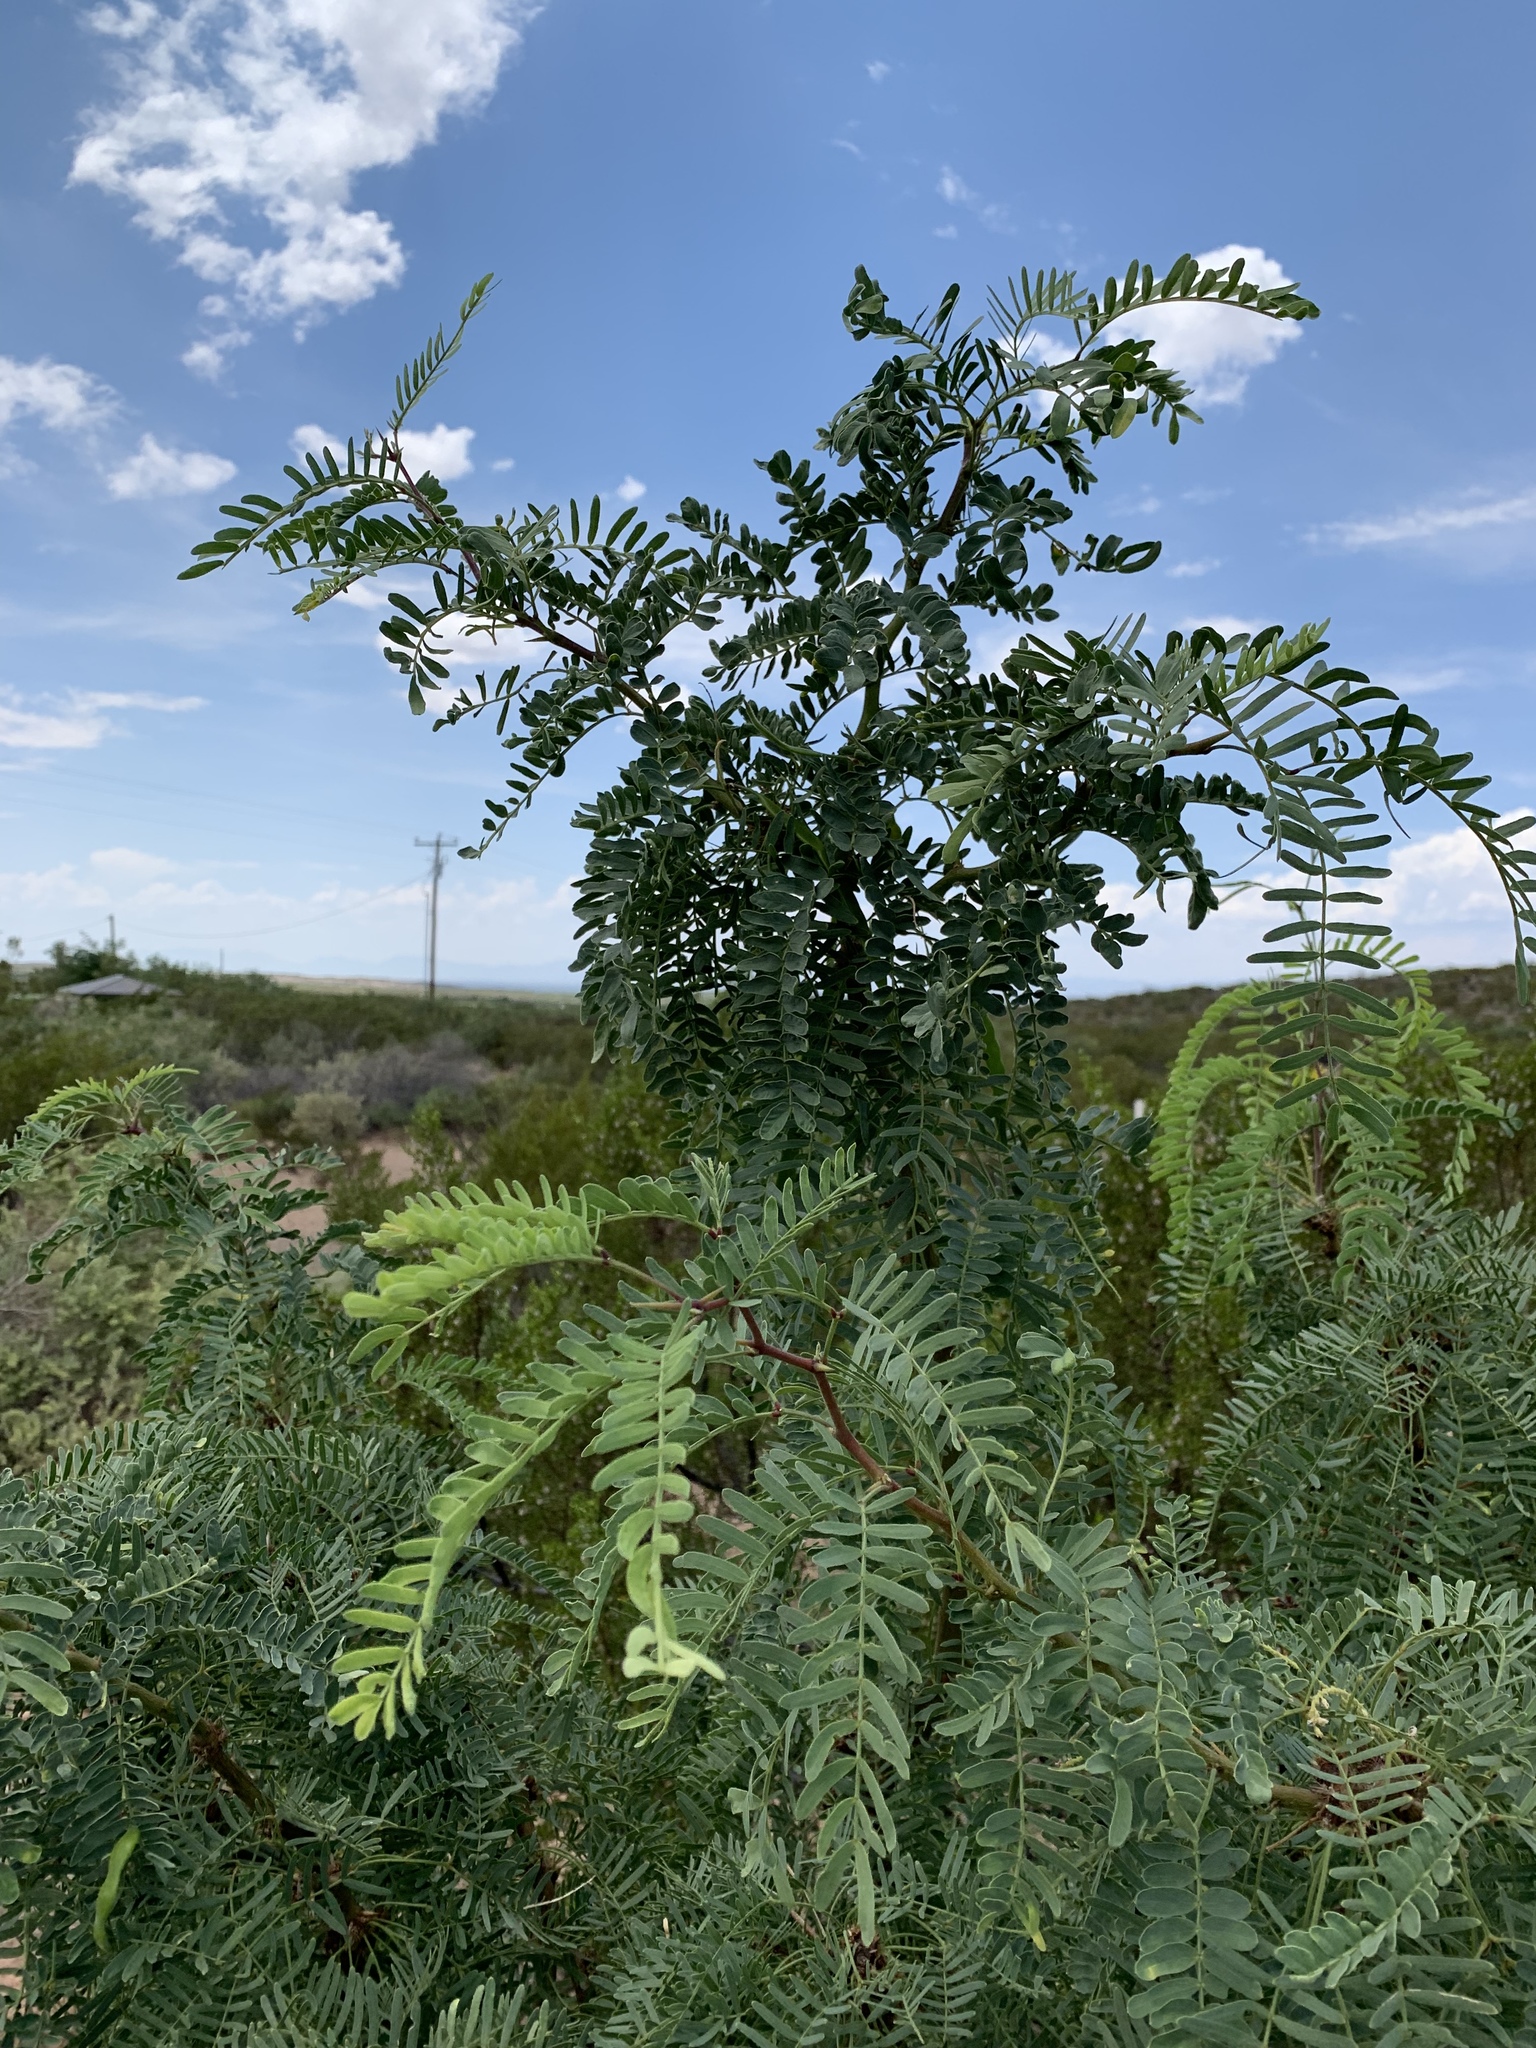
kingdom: Plantae
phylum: Tracheophyta
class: Magnoliopsida
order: Fabales
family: Fabaceae
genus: Prosopis
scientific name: Prosopis glandulosa
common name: Honey mesquite
